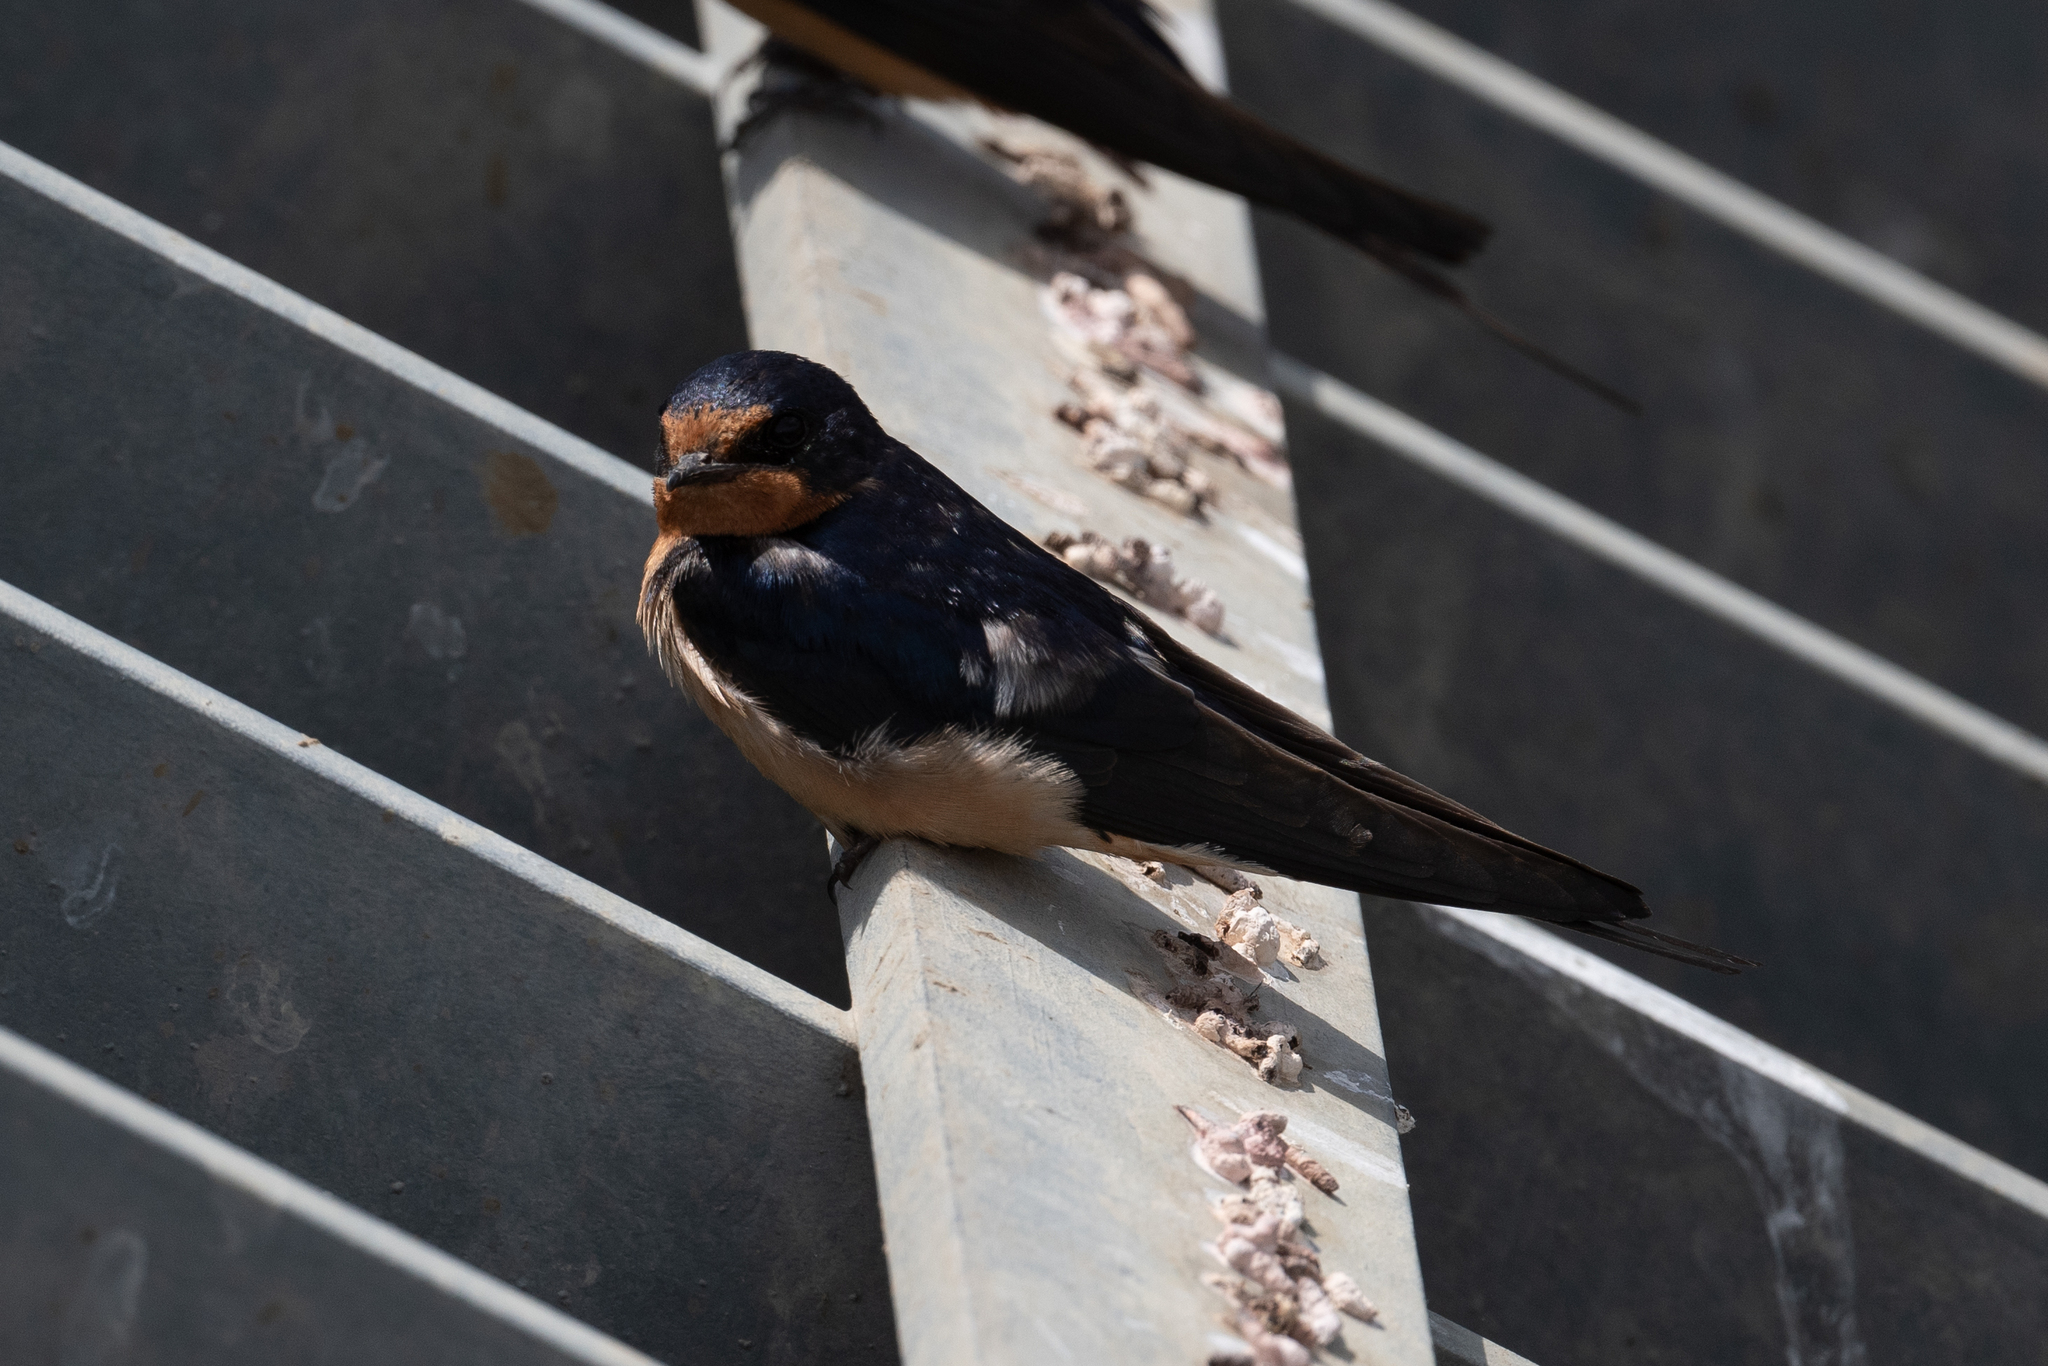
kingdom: Animalia
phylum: Chordata
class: Aves
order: Passeriformes
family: Hirundinidae
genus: Hirundo
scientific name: Hirundo rustica
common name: Barn swallow
